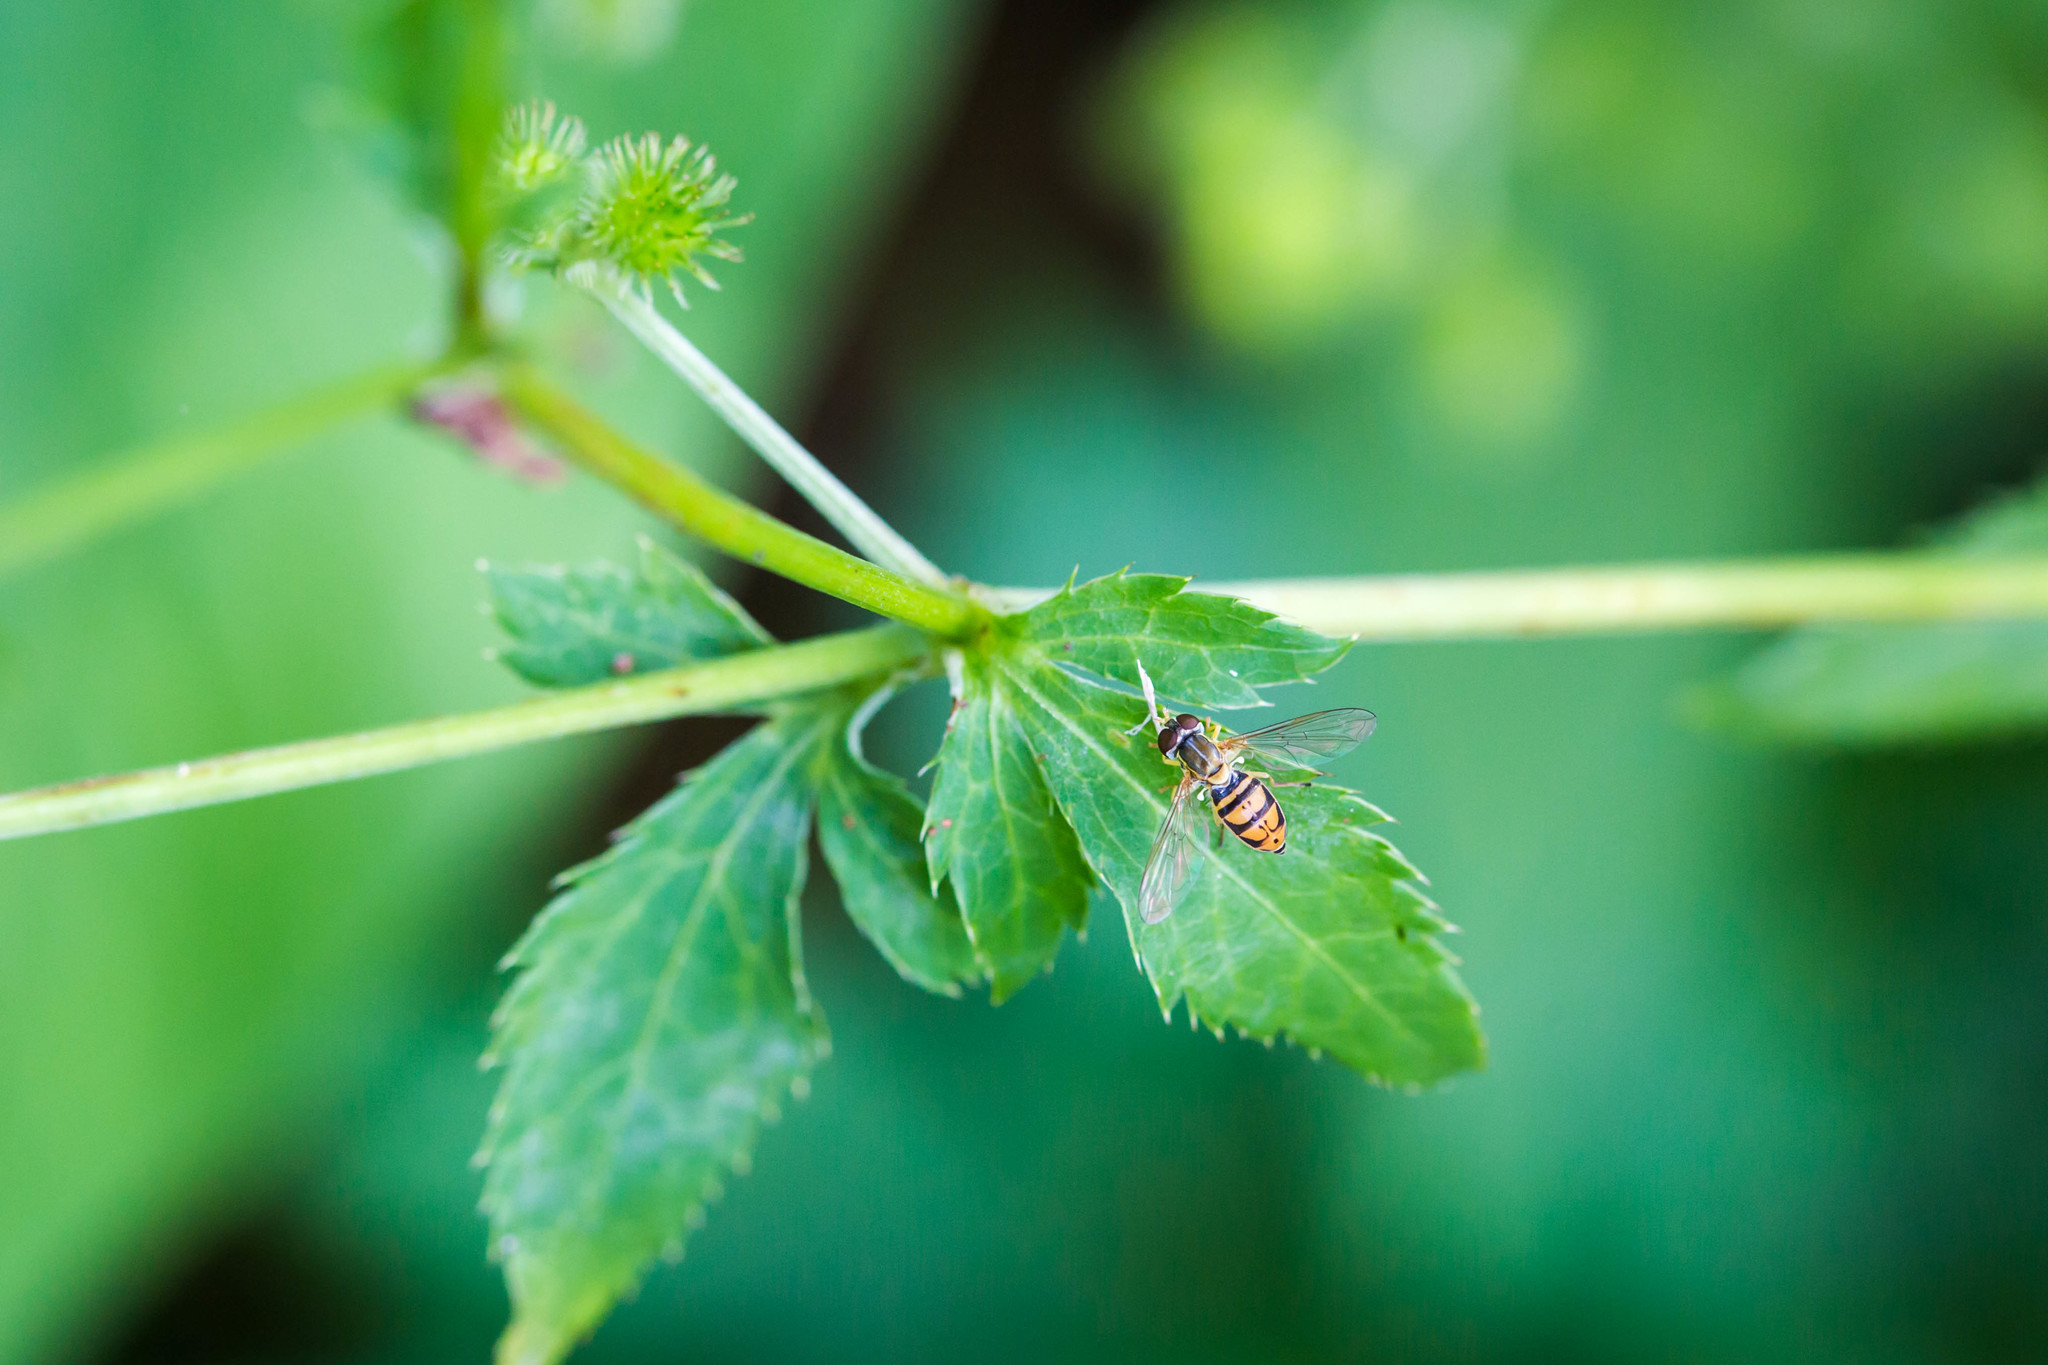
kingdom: Animalia
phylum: Arthropoda
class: Insecta
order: Diptera
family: Syrphidae
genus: Toxomerus
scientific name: Toxomerus marginatus
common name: Syrphid fly
